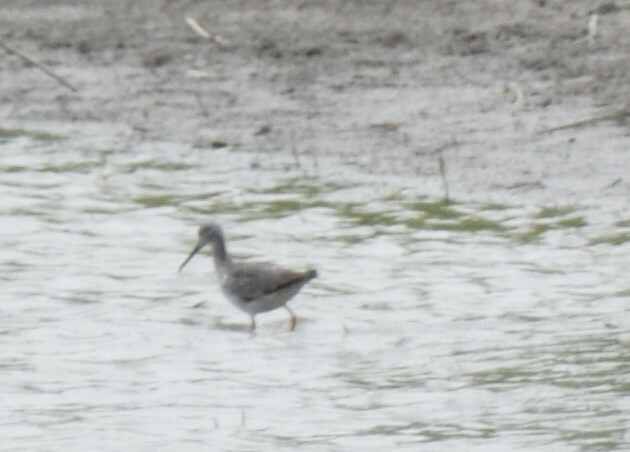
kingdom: Animalia
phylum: Chordata
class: Aves
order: Charadriiformes
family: Scolopacidae
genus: Tringa
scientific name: Tringa melanoleuca
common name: Greater yellowlegs
